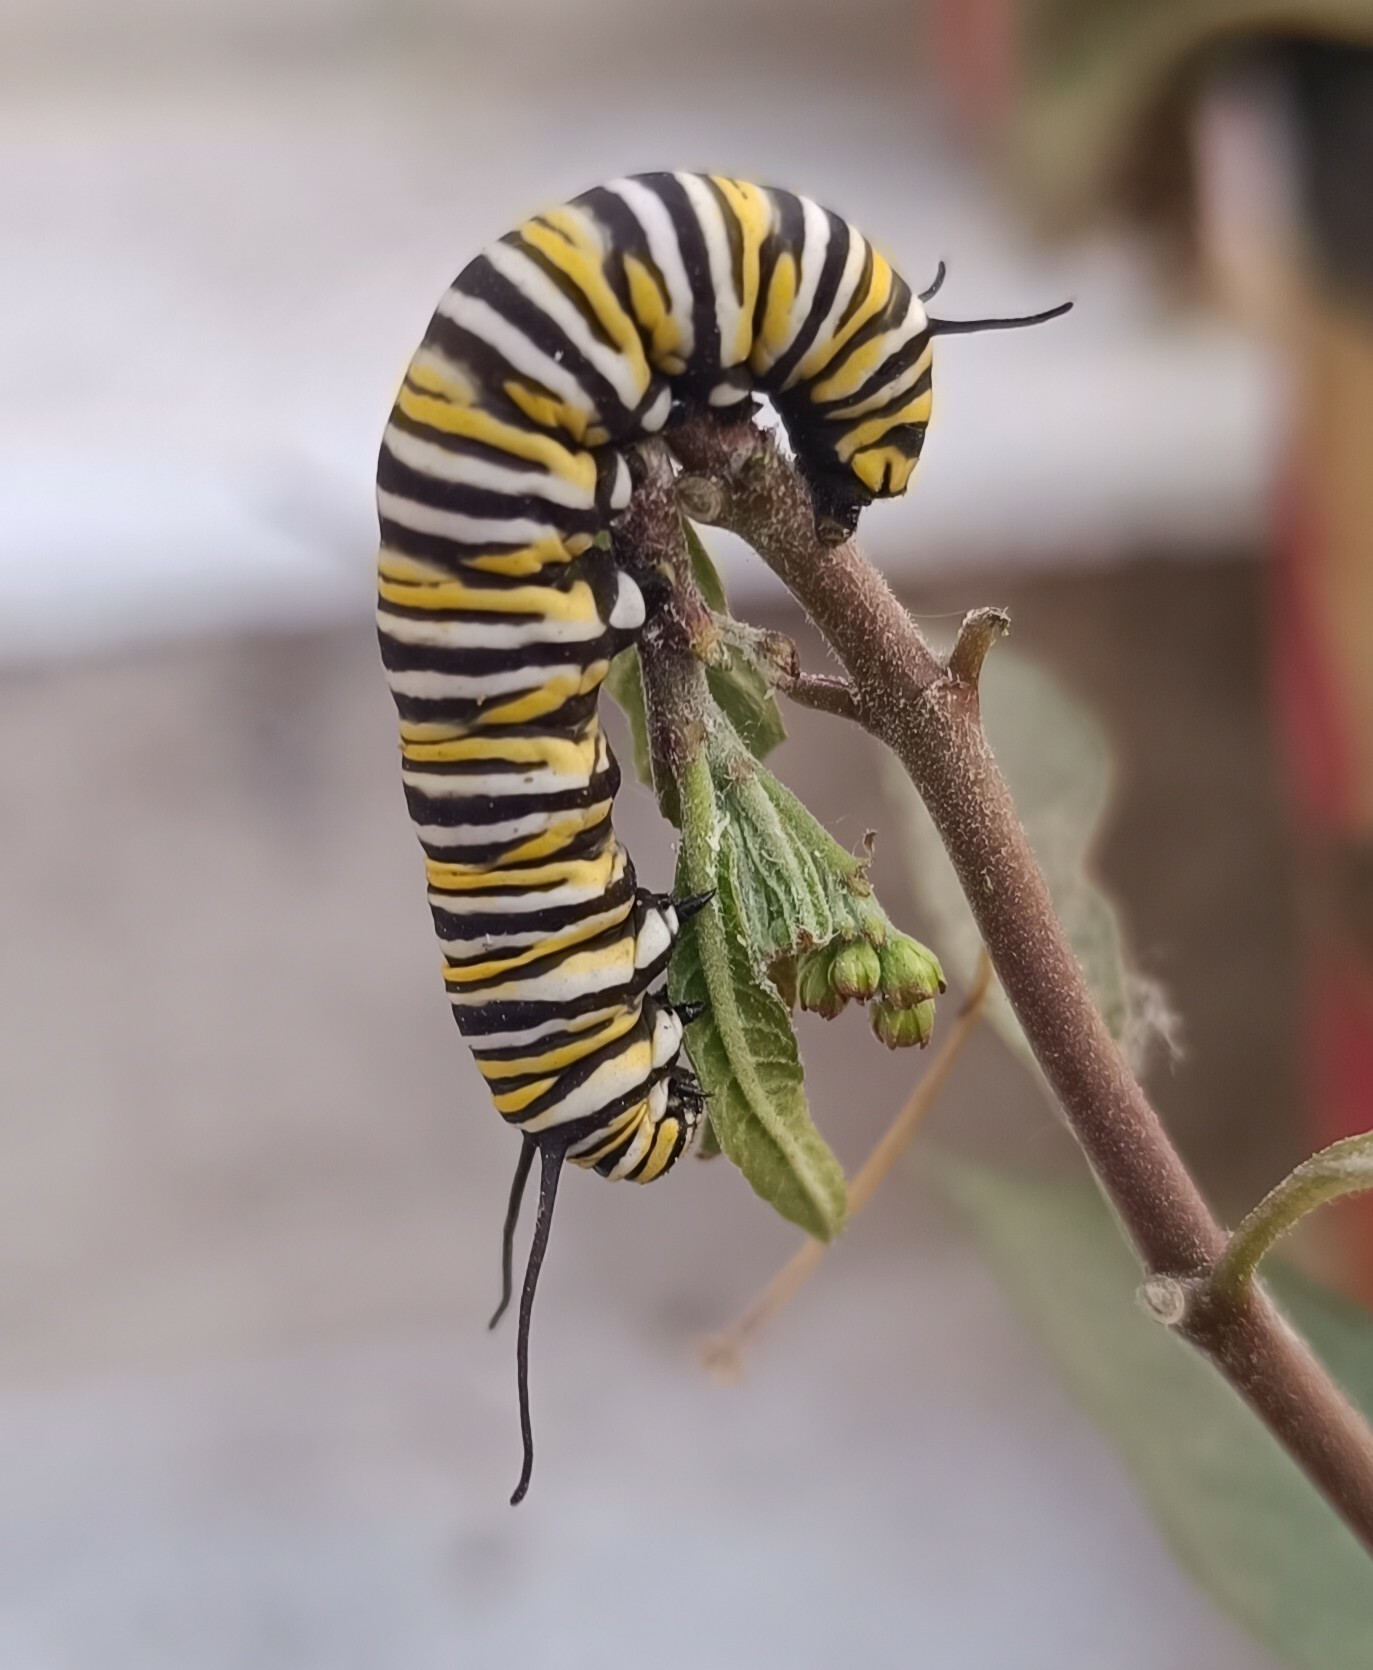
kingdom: Animalia
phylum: Arthropoda
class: Insecta
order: Lepidoptera
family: Nymphalidae
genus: Danaus
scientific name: Danaus plexippus
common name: Monarch
